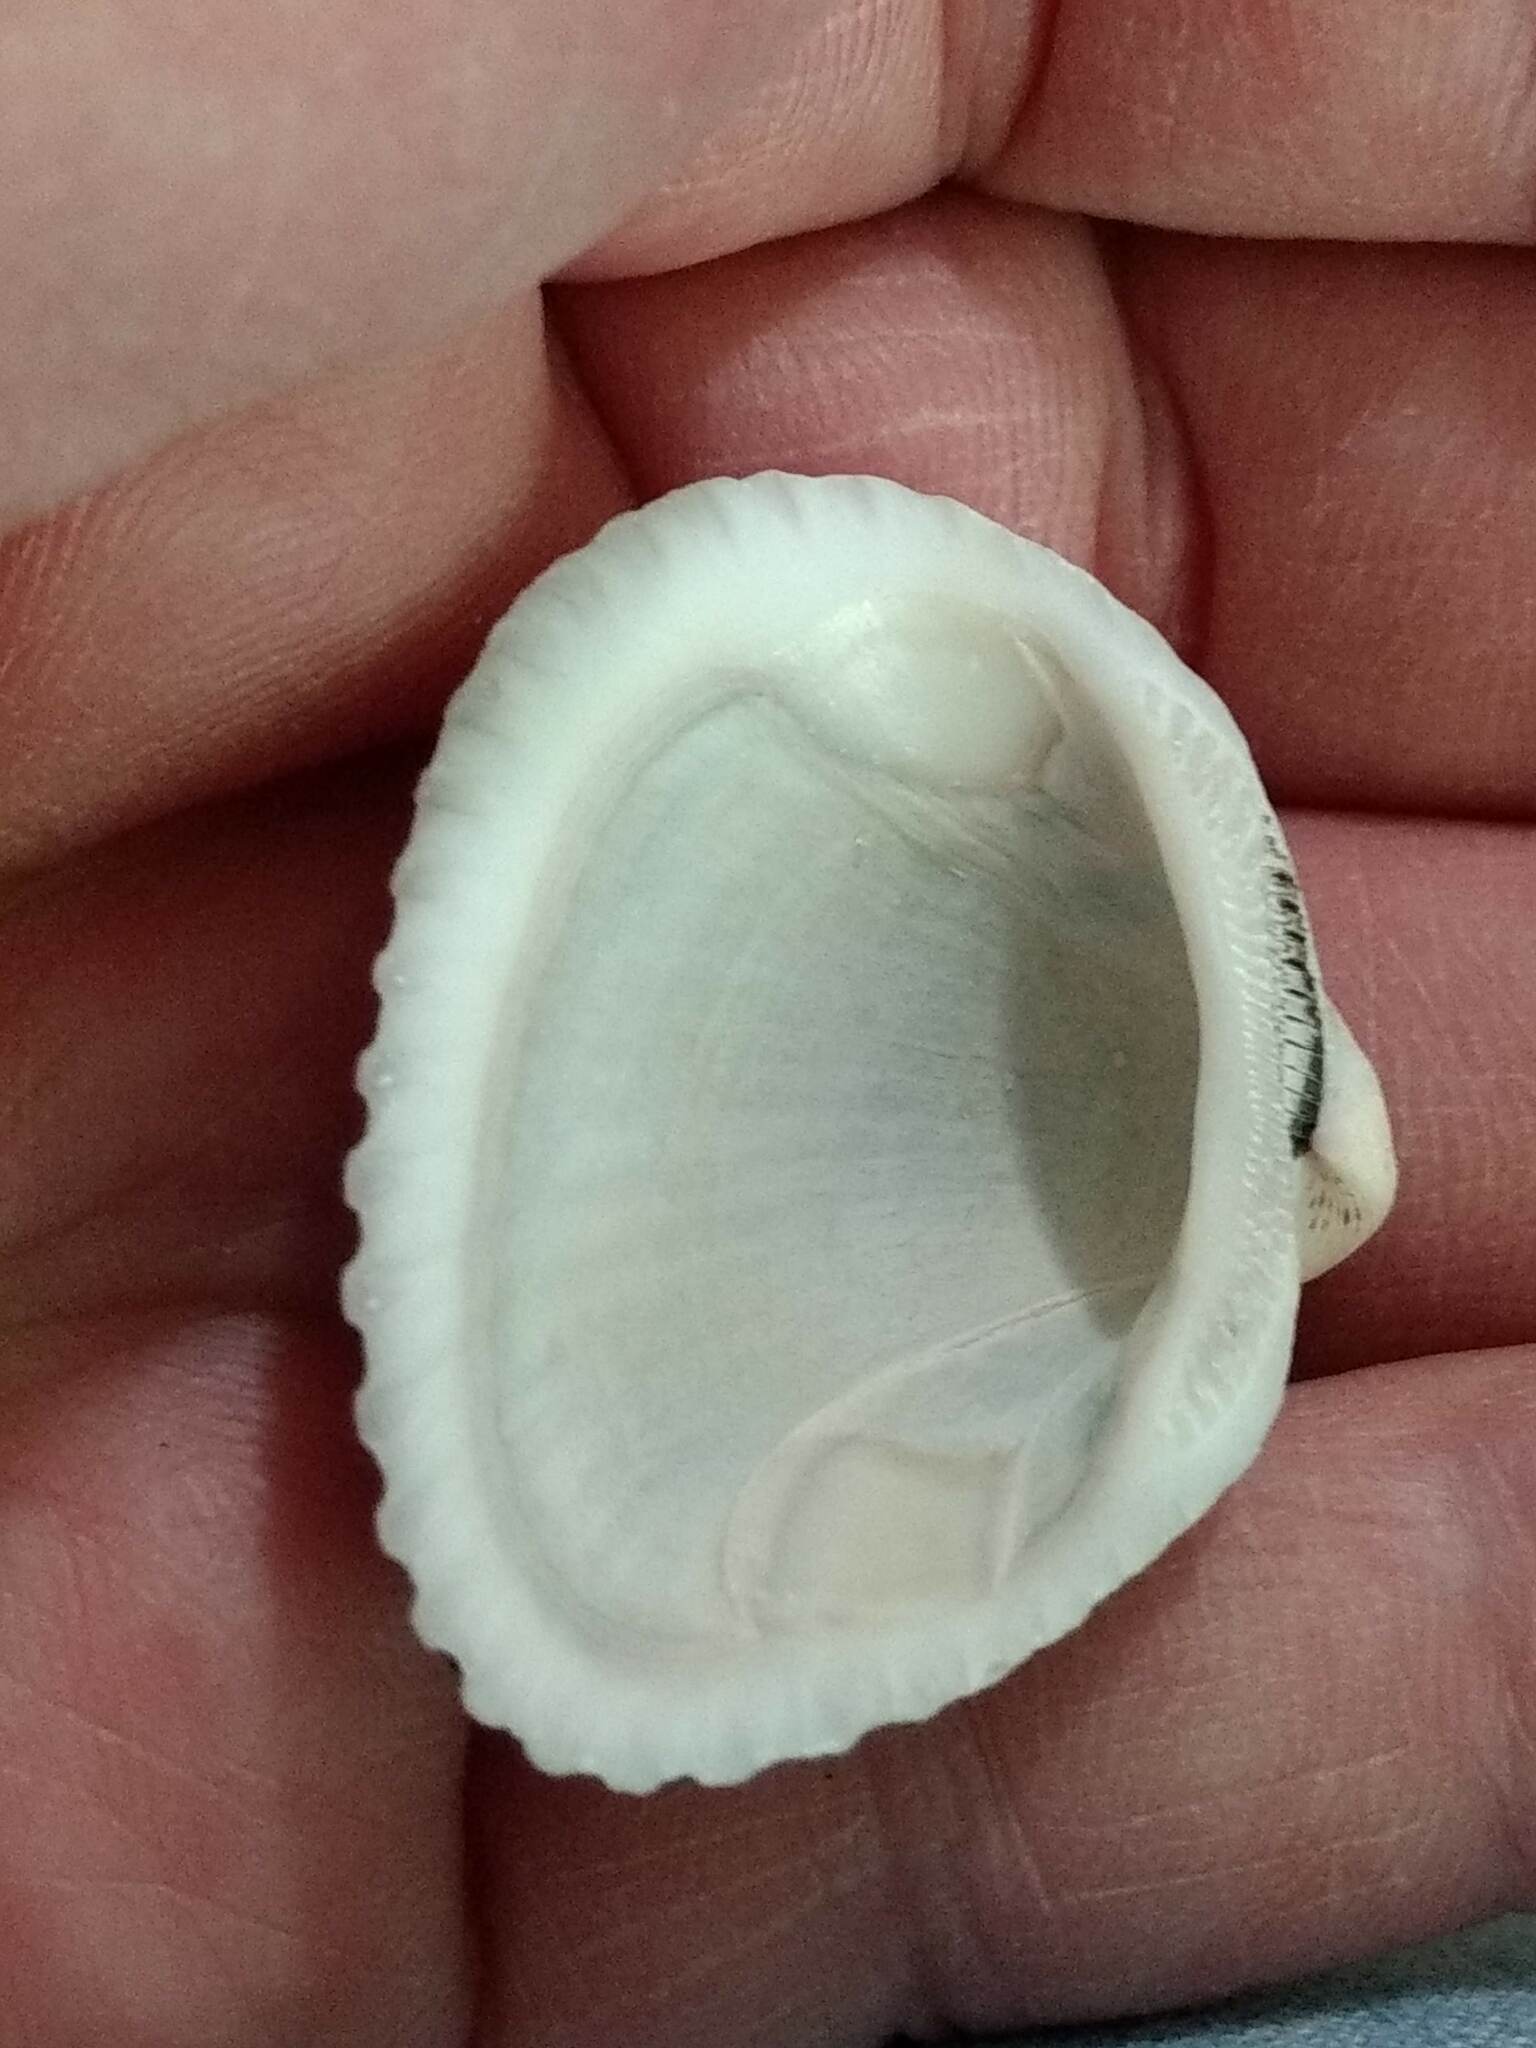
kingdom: Animalia
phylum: Mollusca
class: Bivalvia
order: Arcida
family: Noetiidae
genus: Noetia
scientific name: Noetia ponderosa
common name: Ponderous ark
